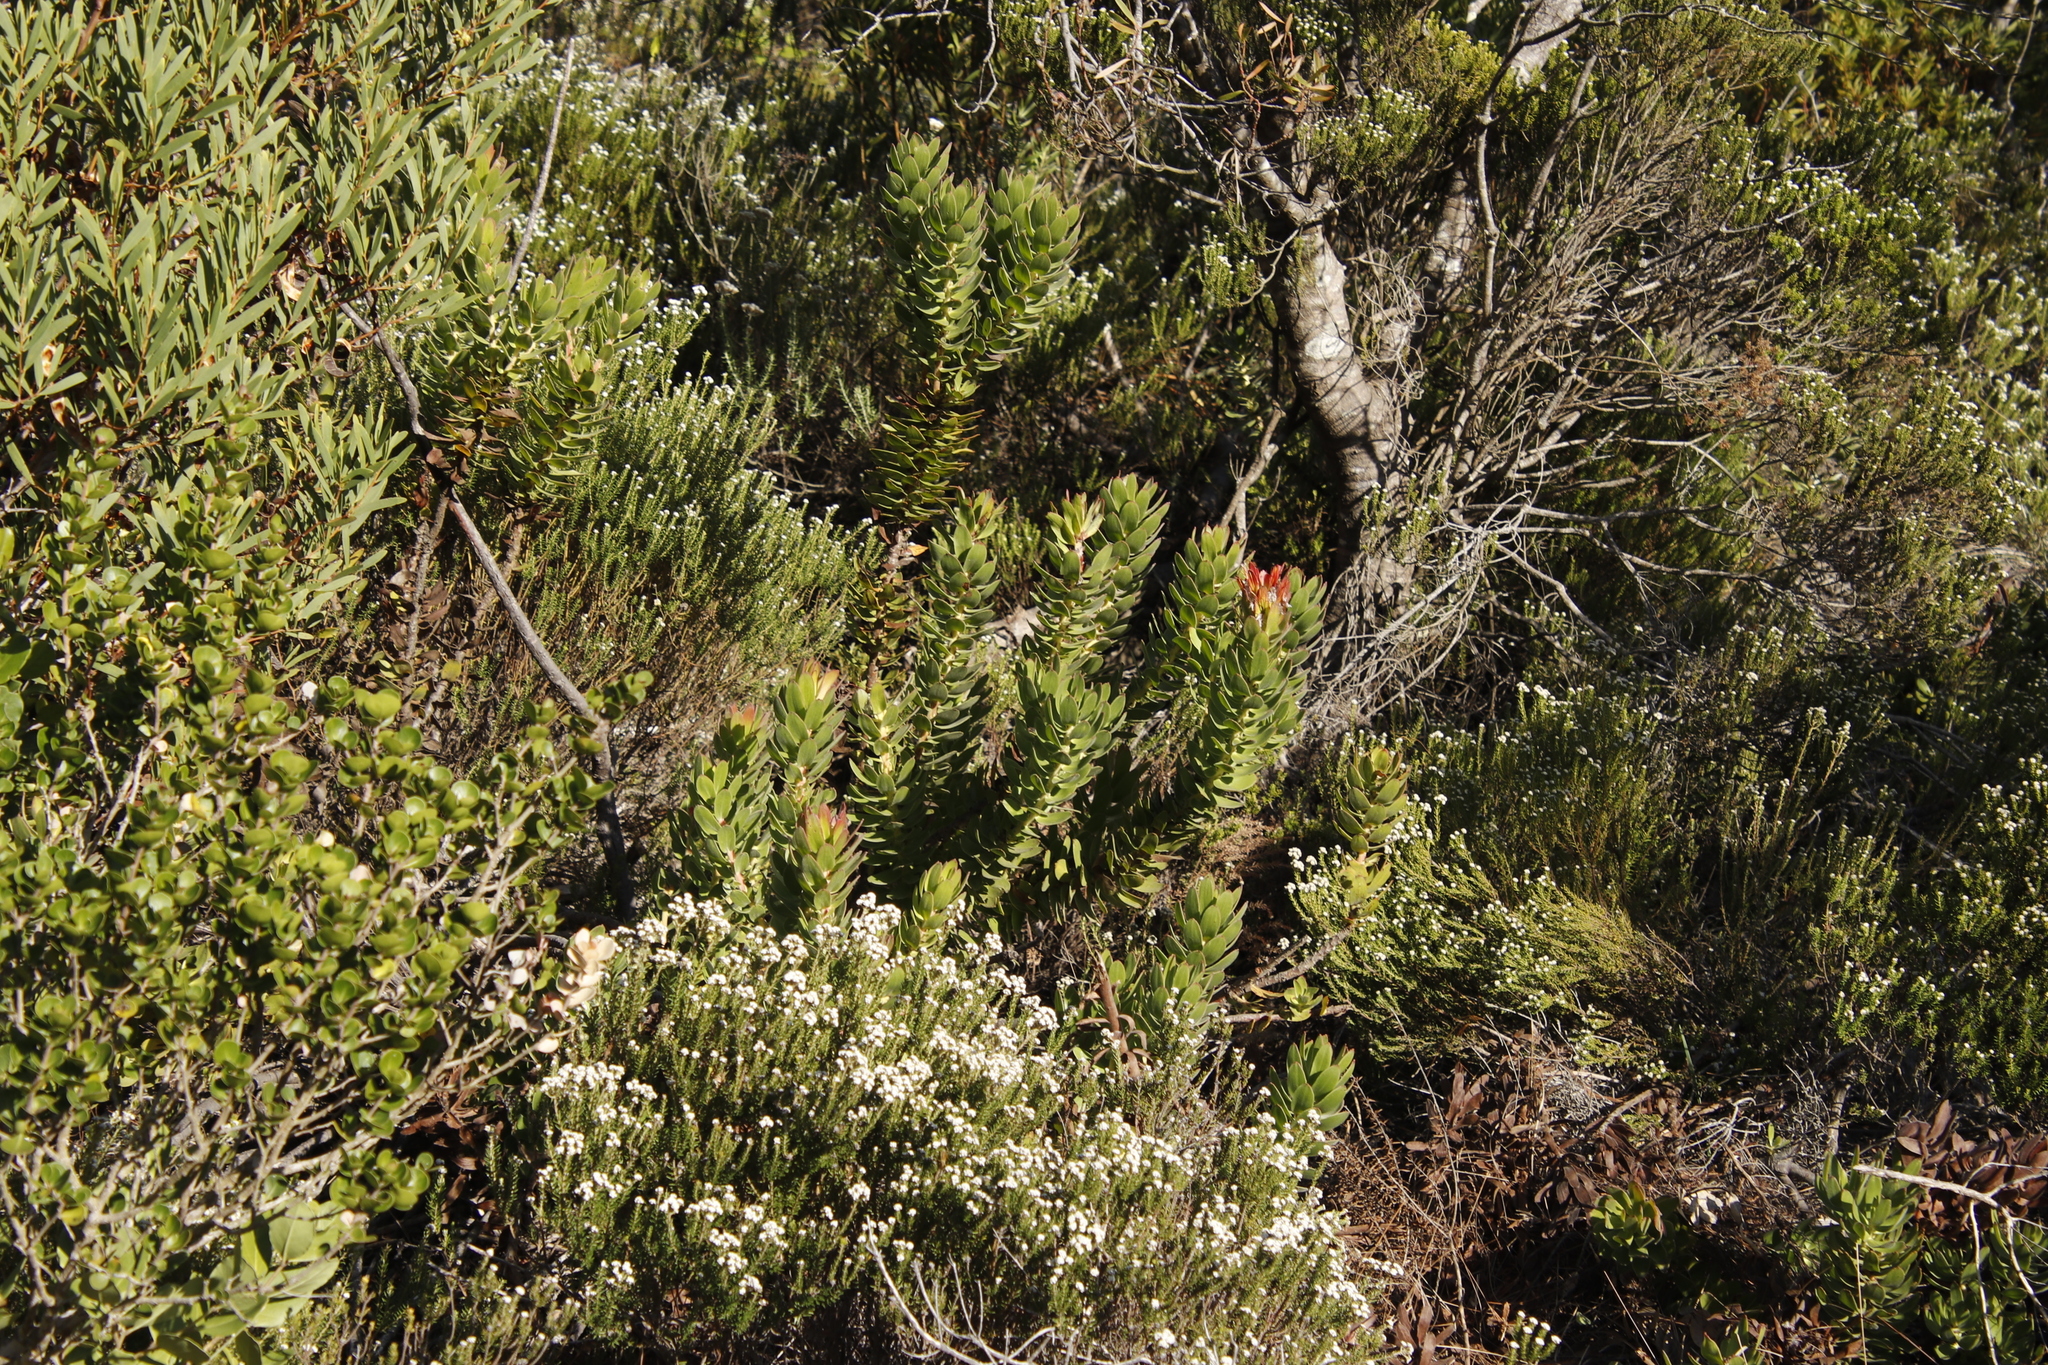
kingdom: Plantae
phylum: Tracheophyta
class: Magnoliopsida
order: Proteales
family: Proteaceae
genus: Mimetes
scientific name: Mimetes cucullatus
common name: Common pagoda
